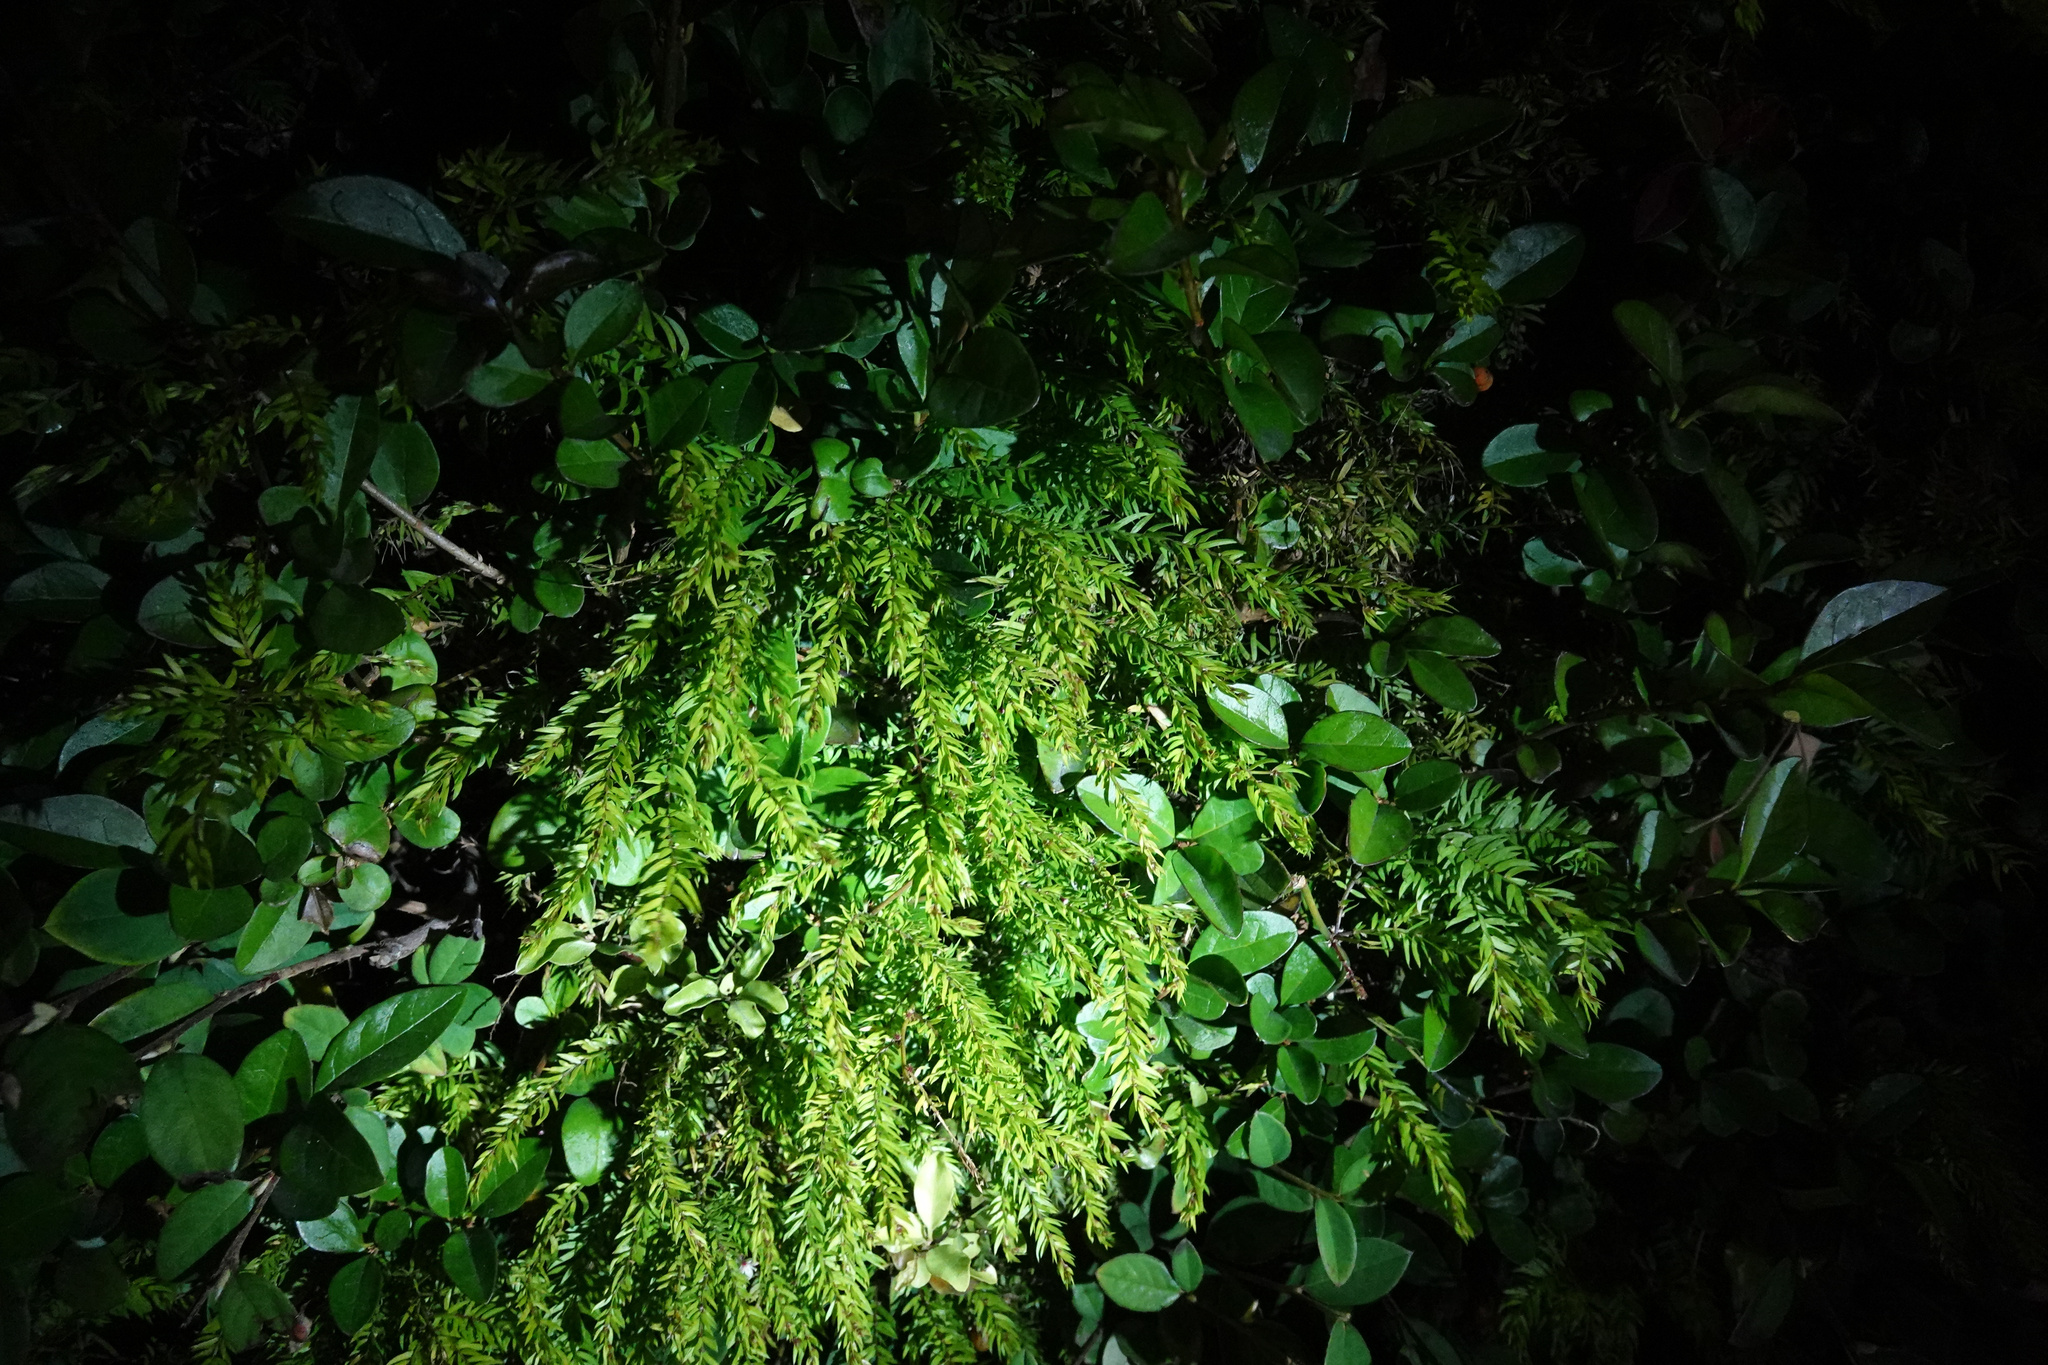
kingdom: Plantae
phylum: Tracheophyta
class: Liliopsida
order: Asparagales
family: Asparagaceae
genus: Asparagus
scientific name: Asparagus scandens
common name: Asparagus-fern
